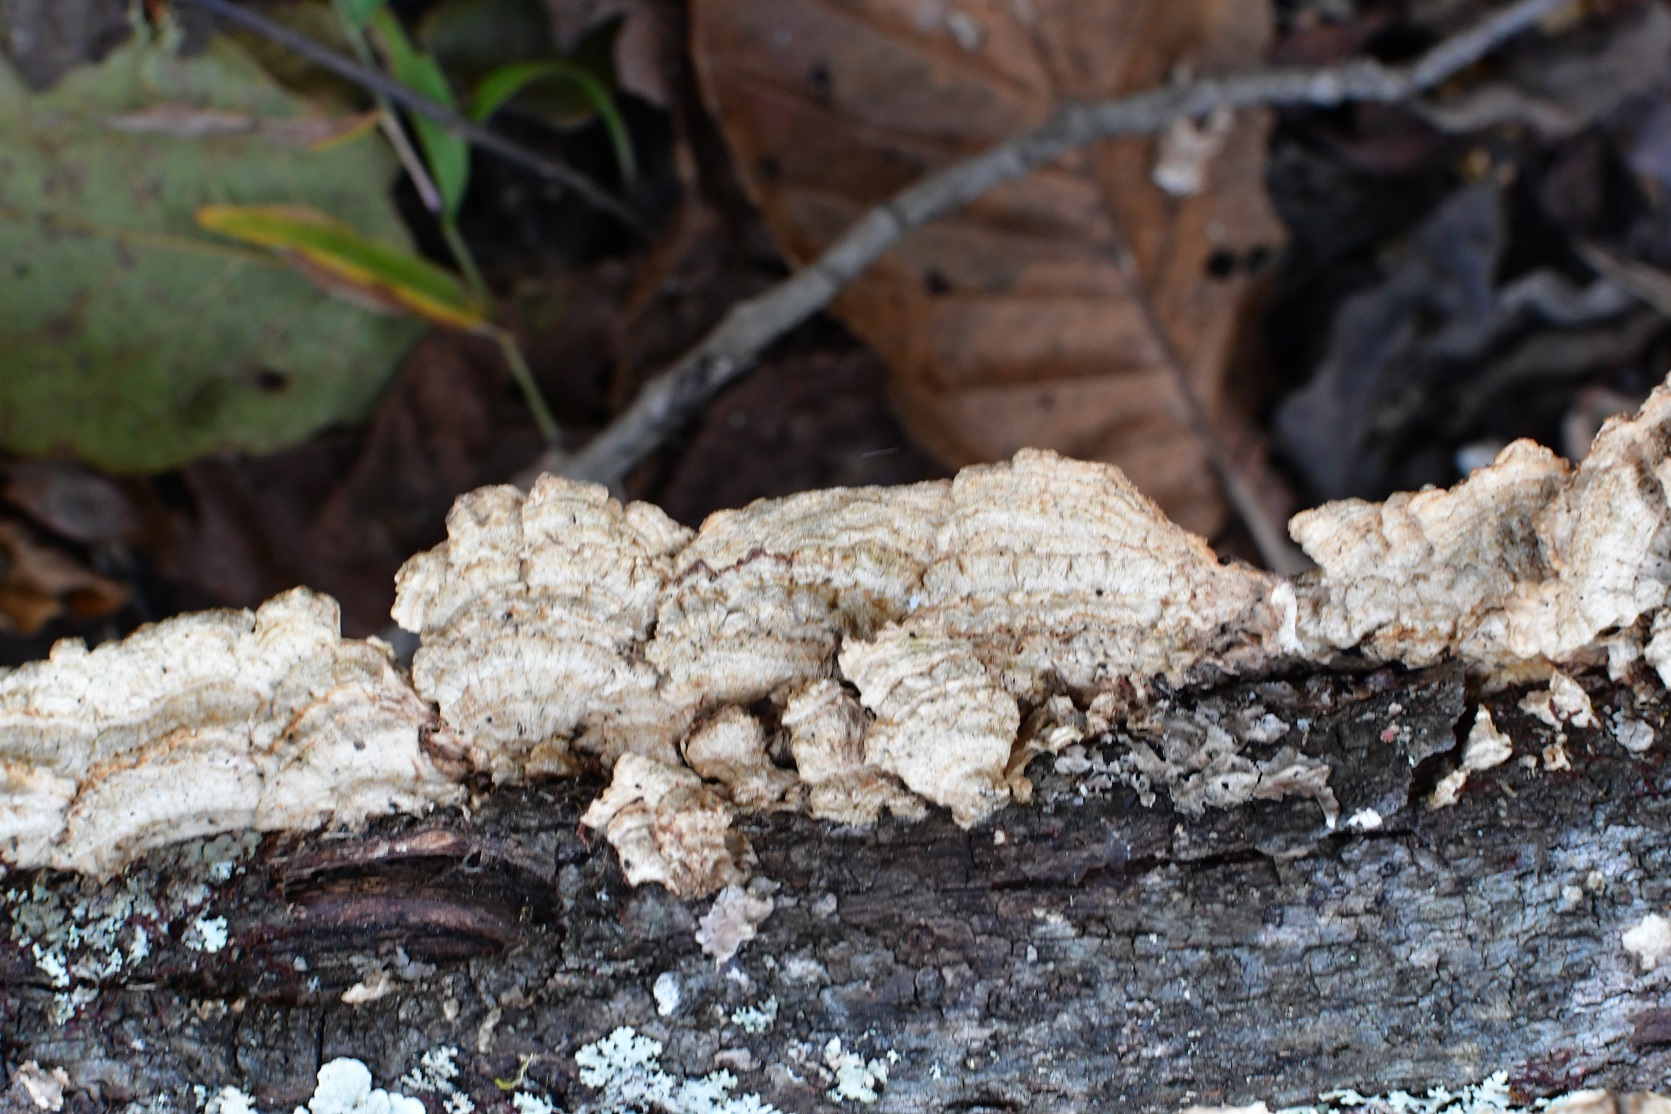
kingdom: Fungi
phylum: Basidiomycota
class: Agaricomycetes
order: Hymenochaetales
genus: Trichaptum
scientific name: Trichaptum abietinum
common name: Purplepore bracket
